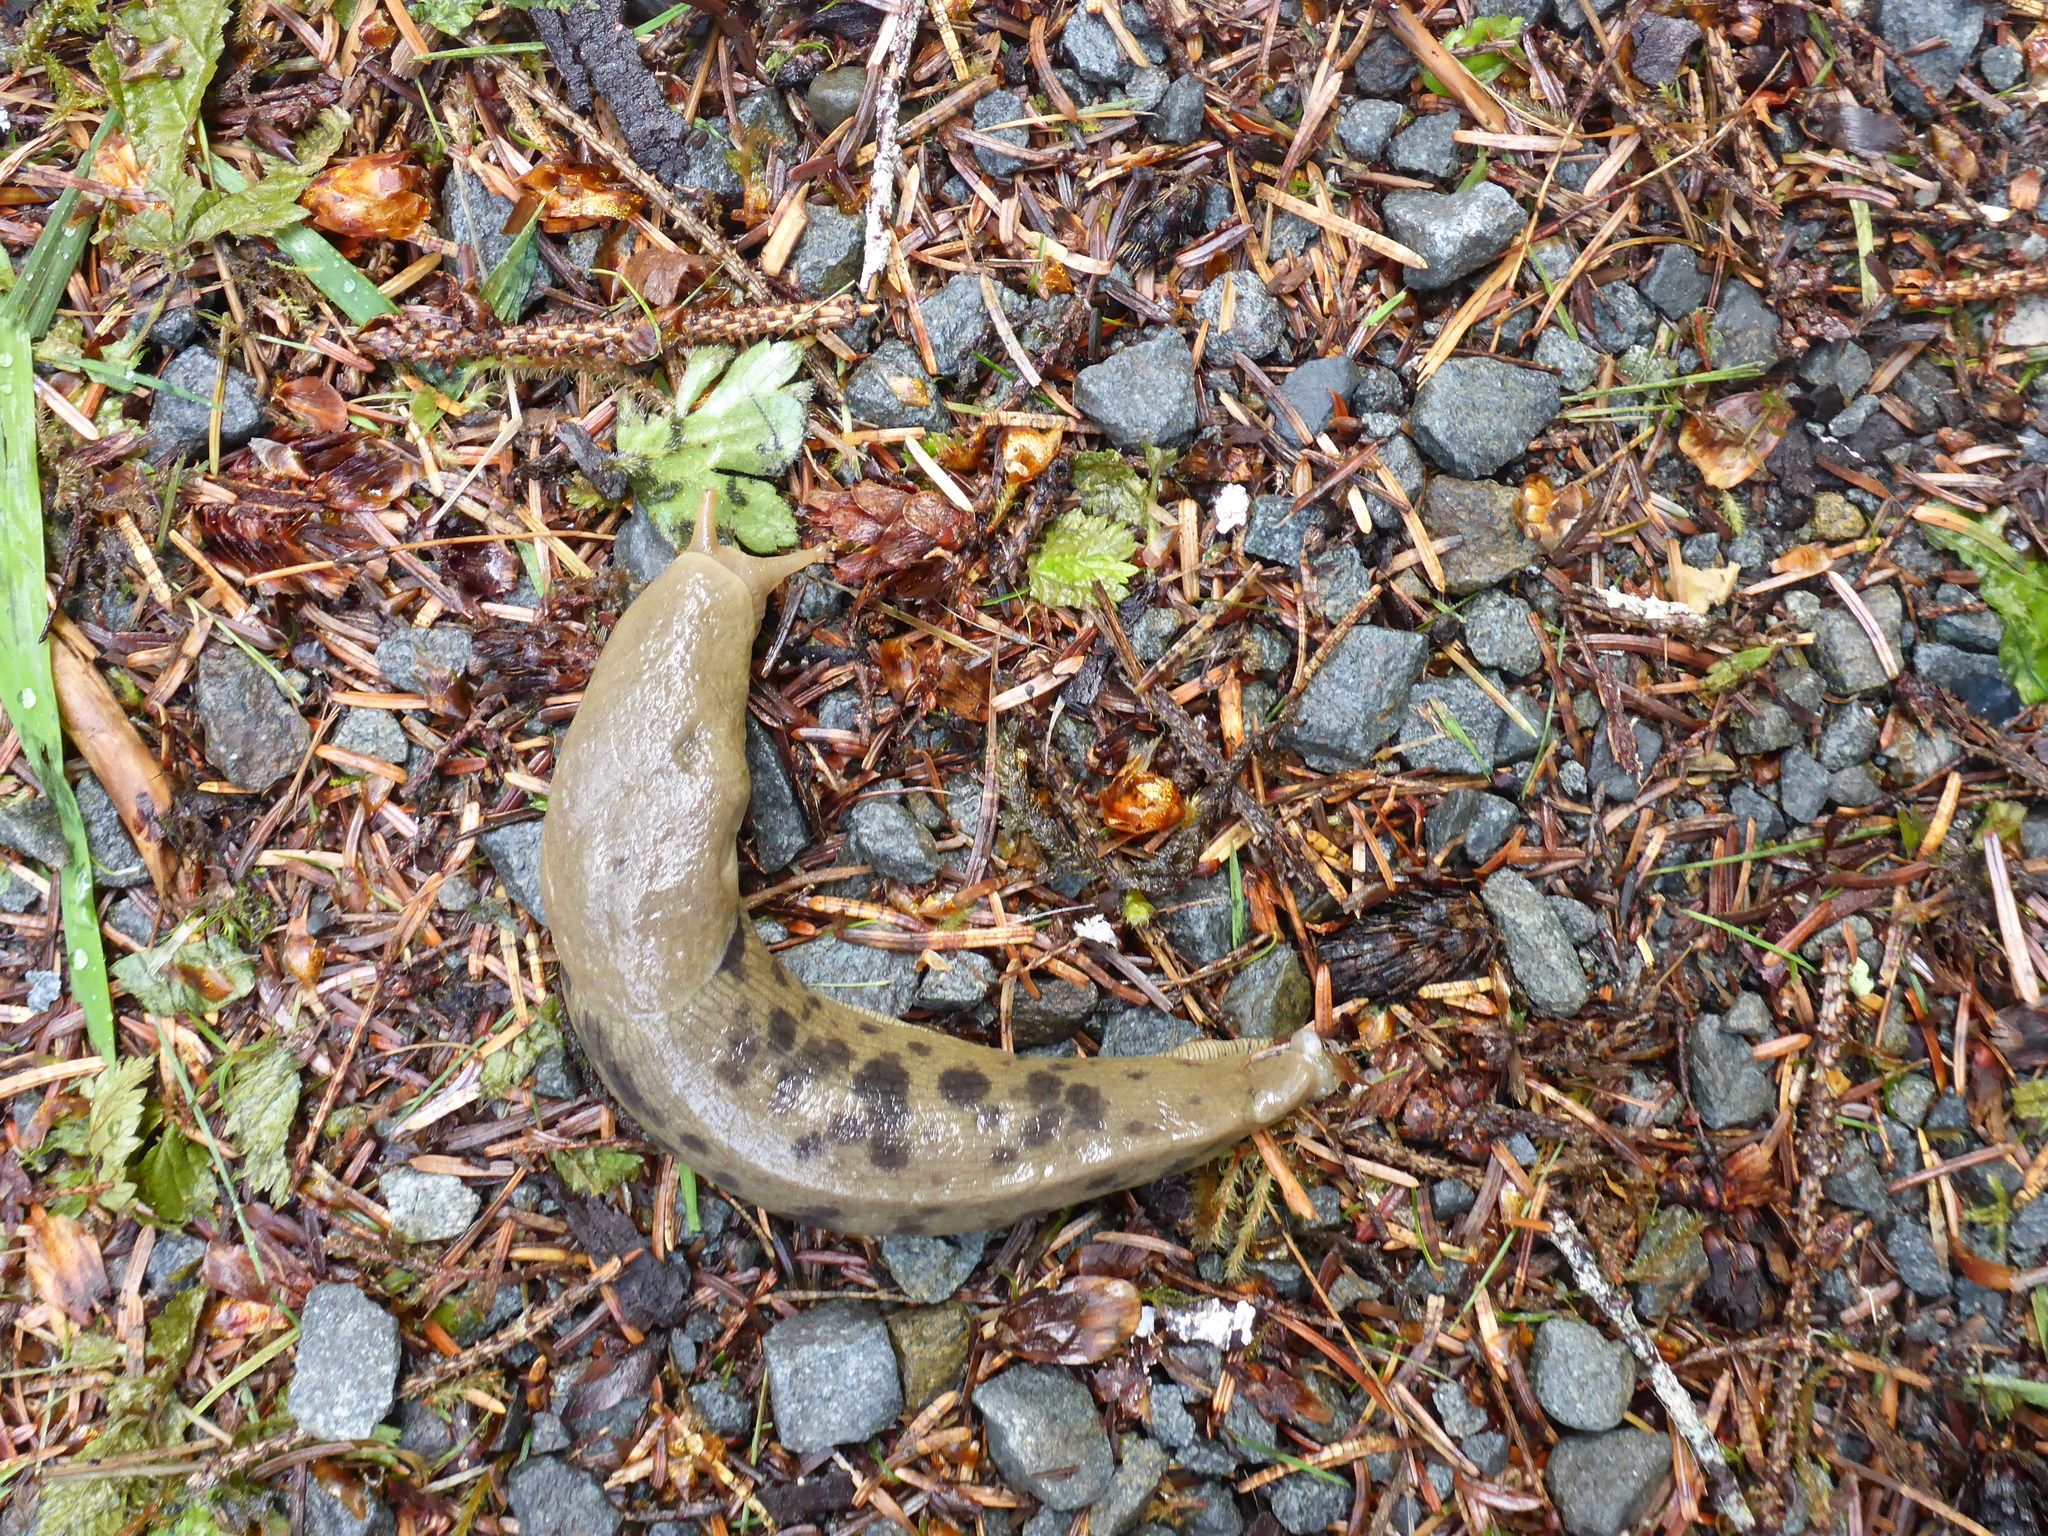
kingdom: Animalia
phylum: Mollusca
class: Gastropoda
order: Stylommatophora
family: Ariolimacidae
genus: Ariolimax
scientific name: Ariolimax columbianus
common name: Pacific banana slug
